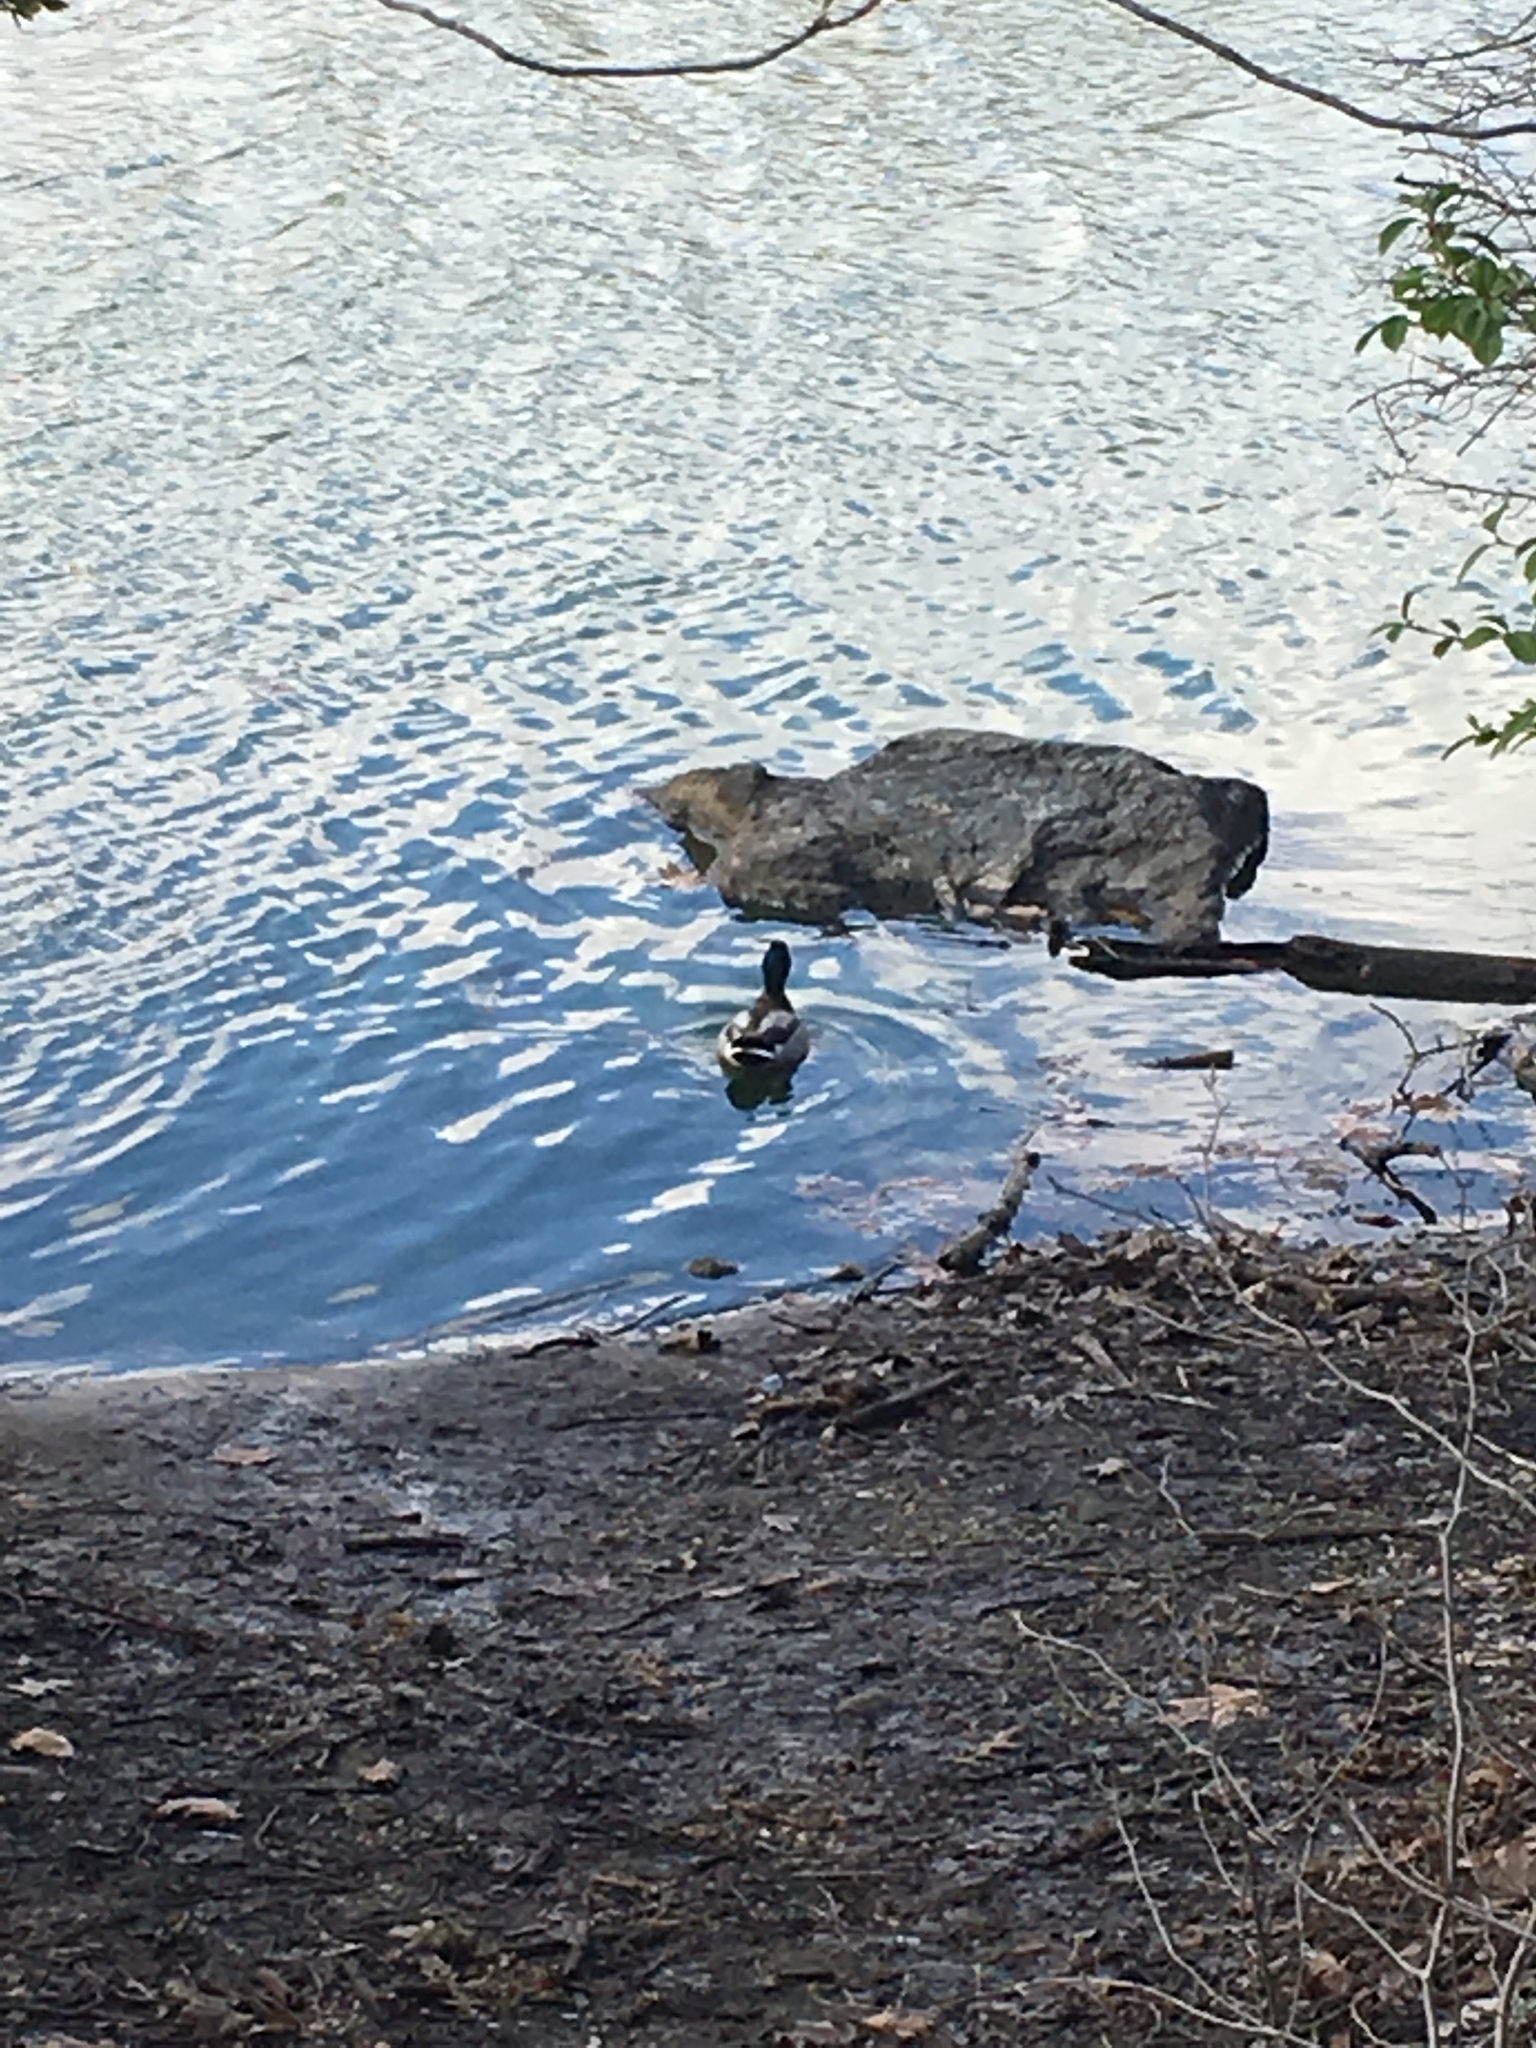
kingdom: Animalia
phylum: Chordata
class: Aves
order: Anseriformes
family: Anatidae
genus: Anas
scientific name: Anas platyrhynchos
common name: Mallard
